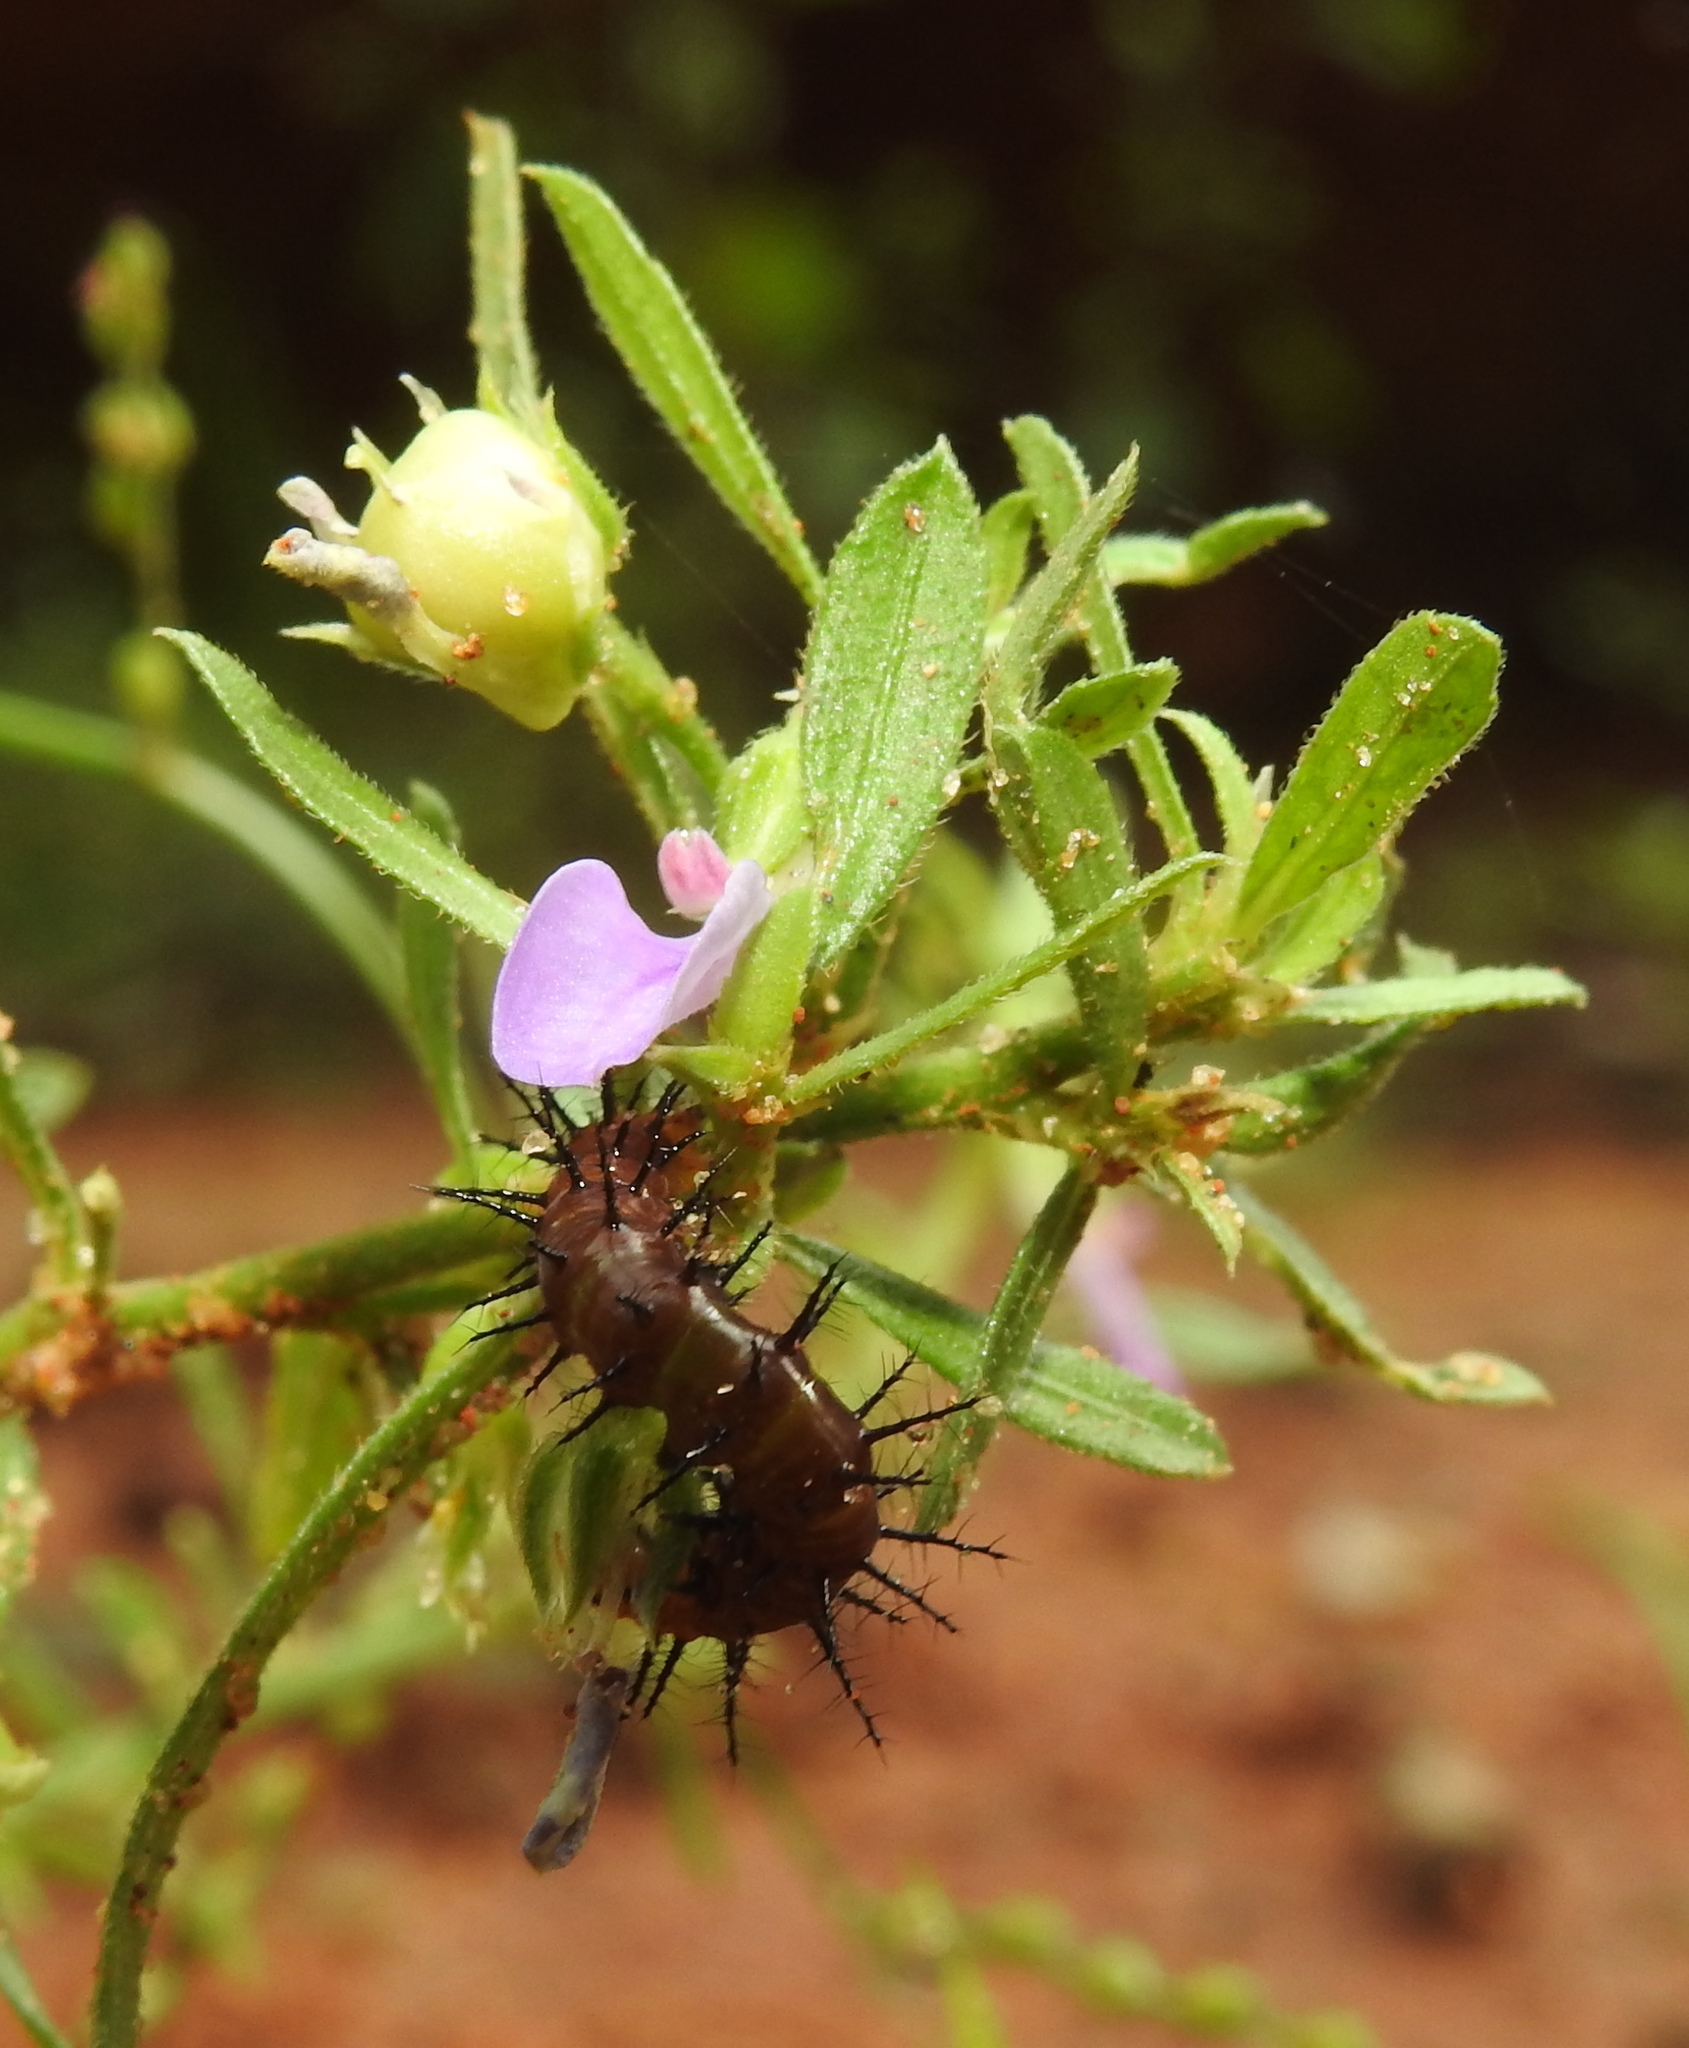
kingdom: Animalia
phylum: Arthropoda
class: Insecta
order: Lepidoptera
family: Nymphalidae
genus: Acraea
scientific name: Acraea terpsicore
